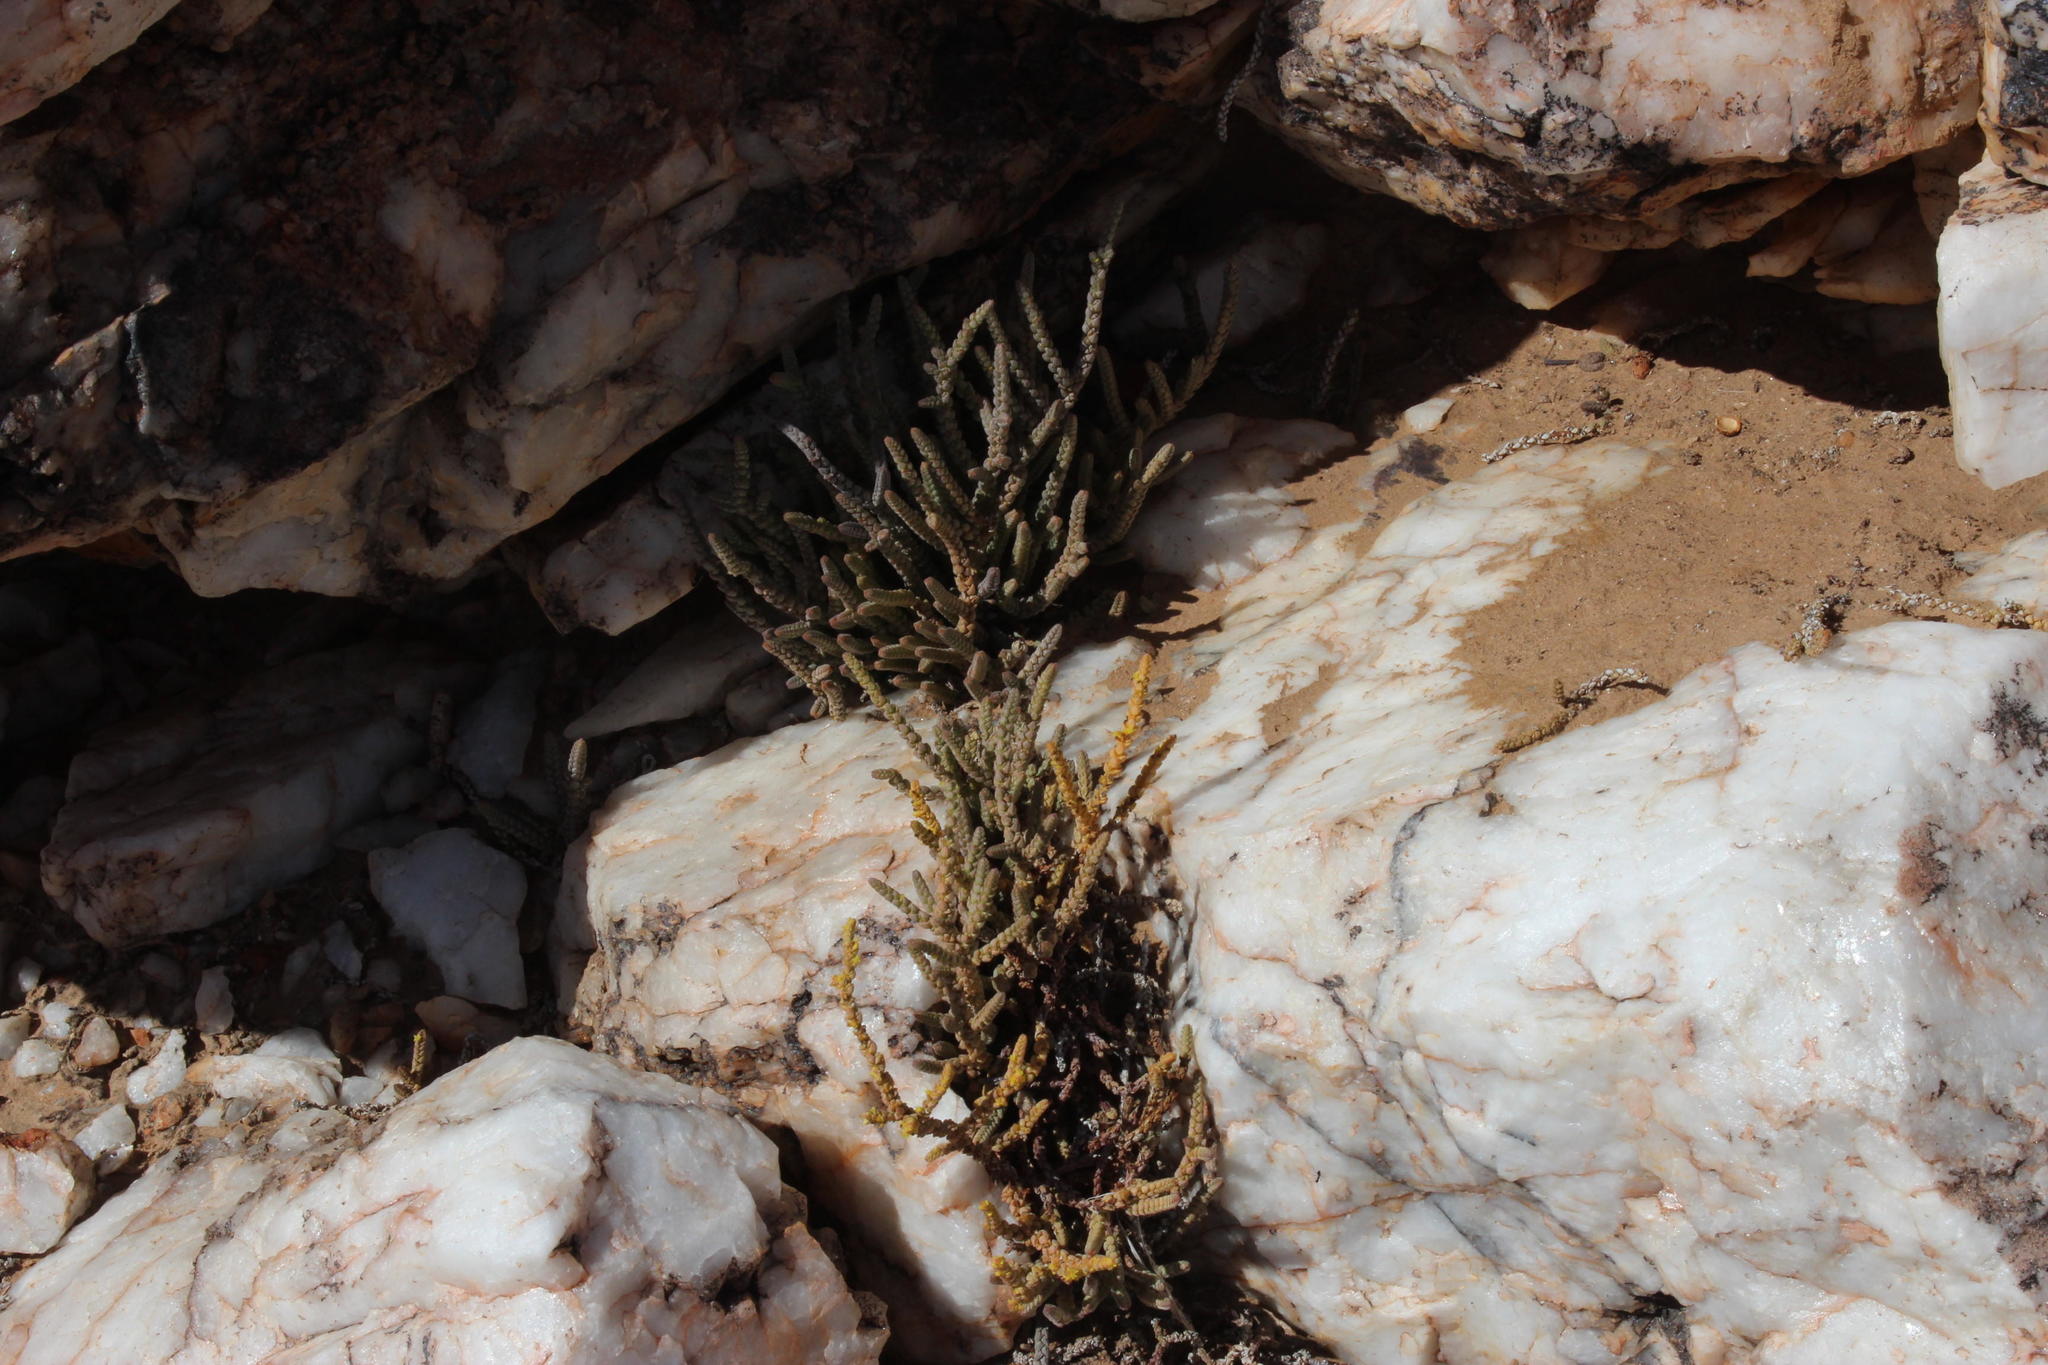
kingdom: Plantae
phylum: Tracheophyta
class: Magnoliopsida
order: Saxifragales
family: Crassulaceae
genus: Crassula
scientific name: Crassula muscosa
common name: Toy-cypress
